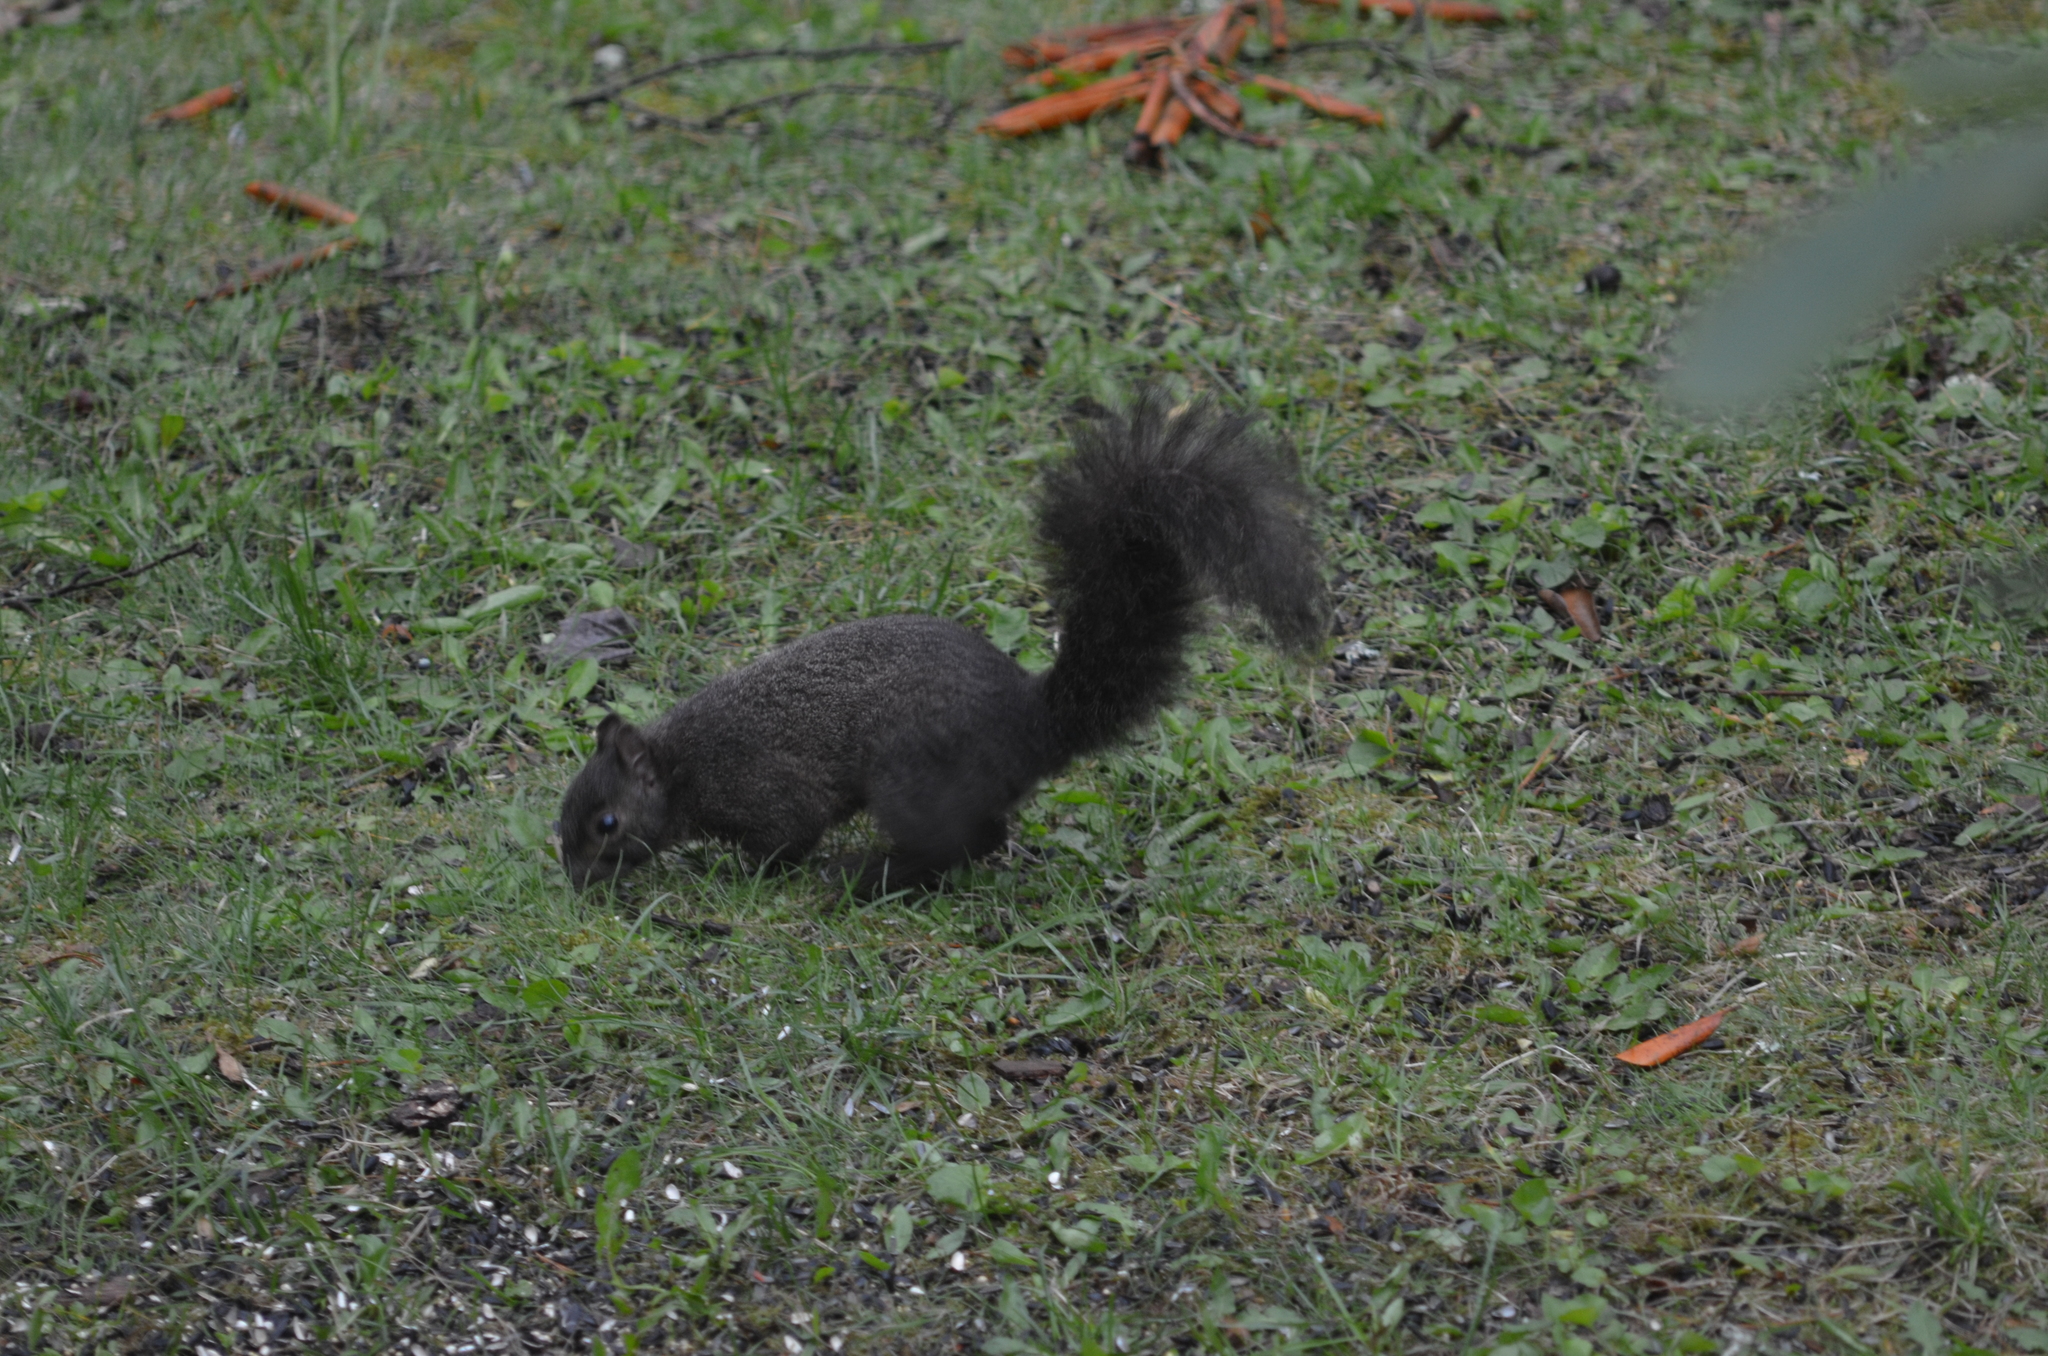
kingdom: Animalia
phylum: Chordata
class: Mammalia
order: Rodentia
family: Sciuridae
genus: Sciurus
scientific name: Sciurus carolinensis
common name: Eastern gray squirrel
